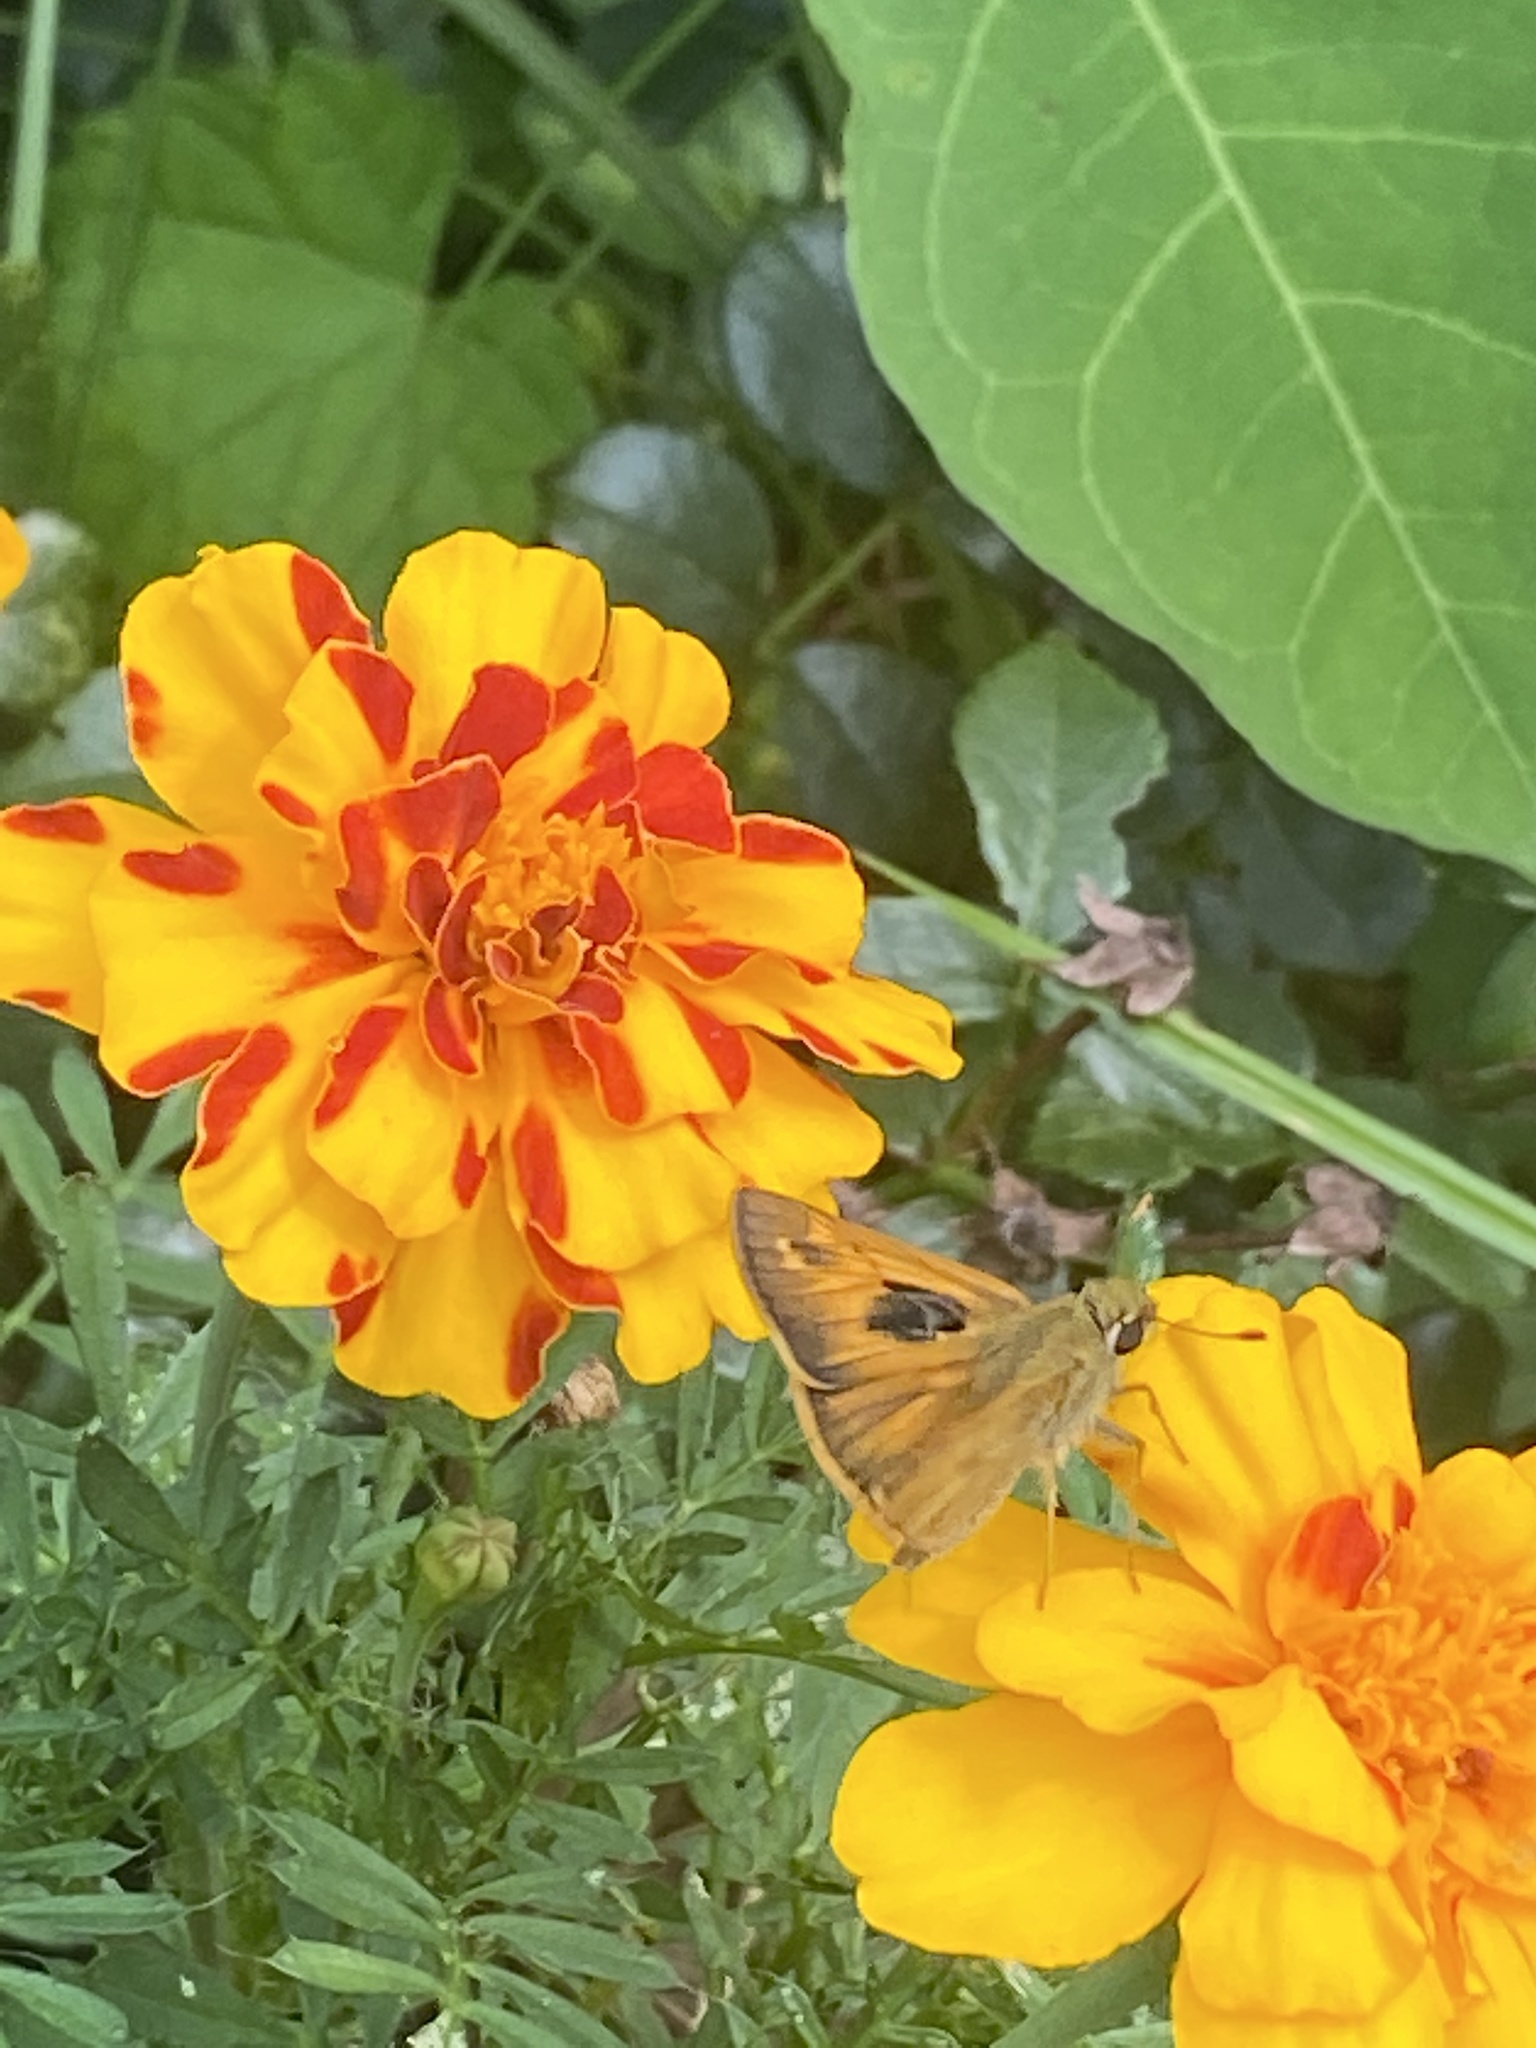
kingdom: Animalia
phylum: Arthropoda
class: Insecta
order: Lepidoptera
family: Hesperiidae
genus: Atalopedes
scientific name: Atalopedes
